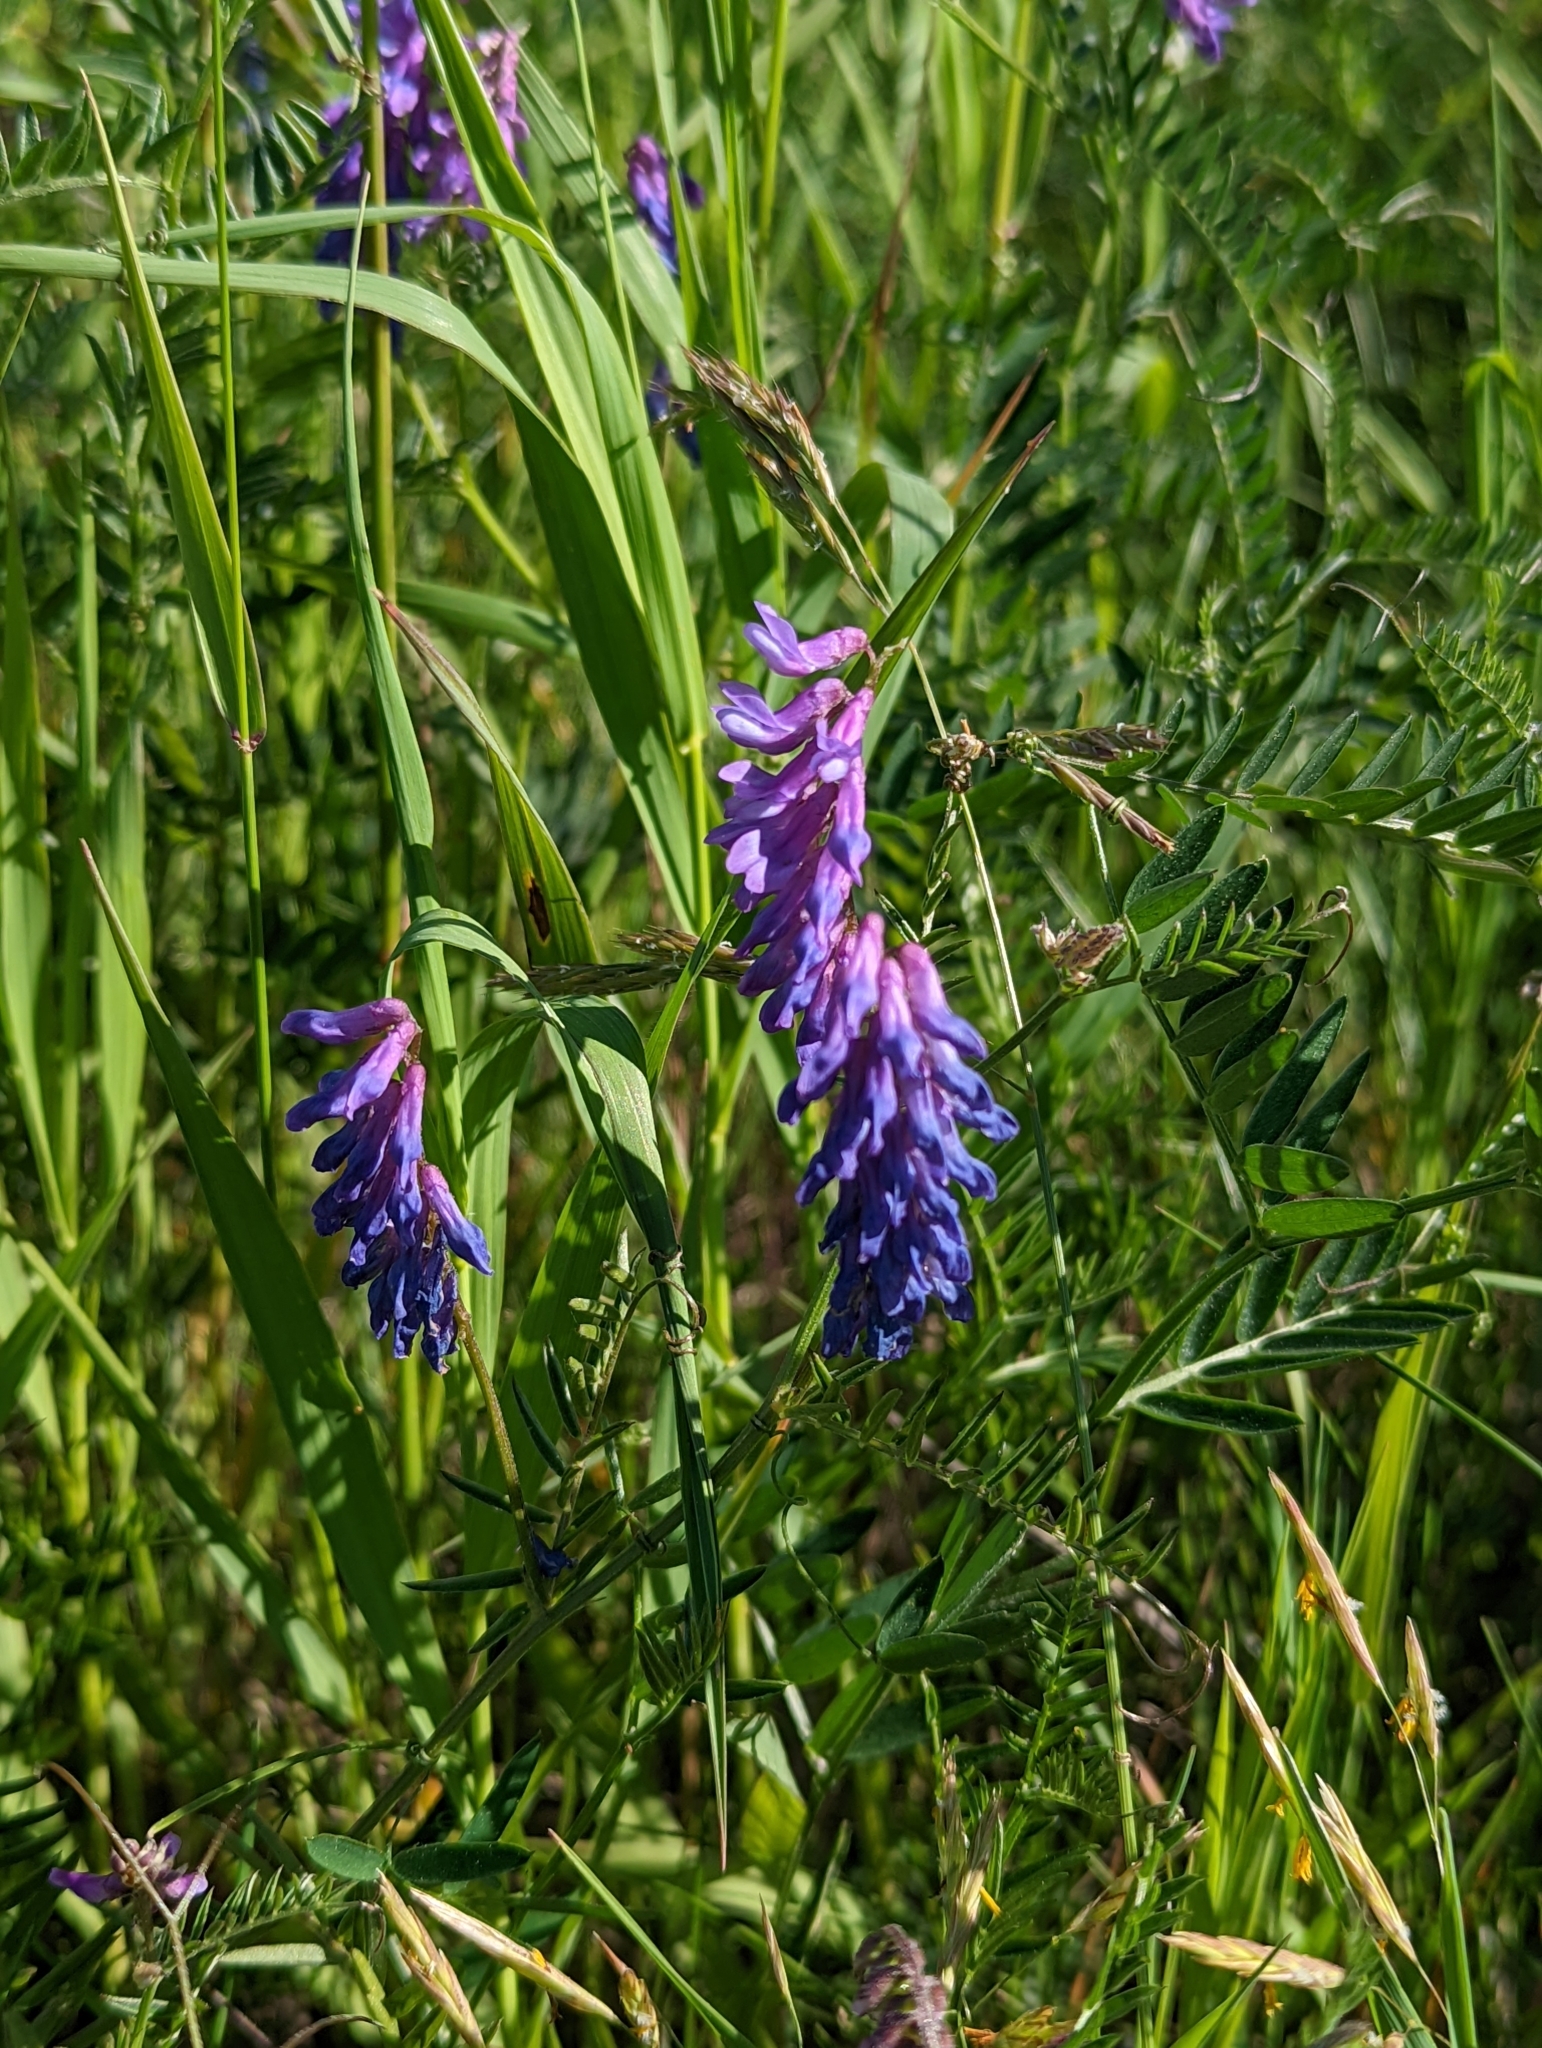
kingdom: Plantae
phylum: Tracheophyta
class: Magnoliopsida
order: Fabales
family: Fabaceae
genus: Vicia
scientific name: Vicia cracca
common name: Bird vetch
